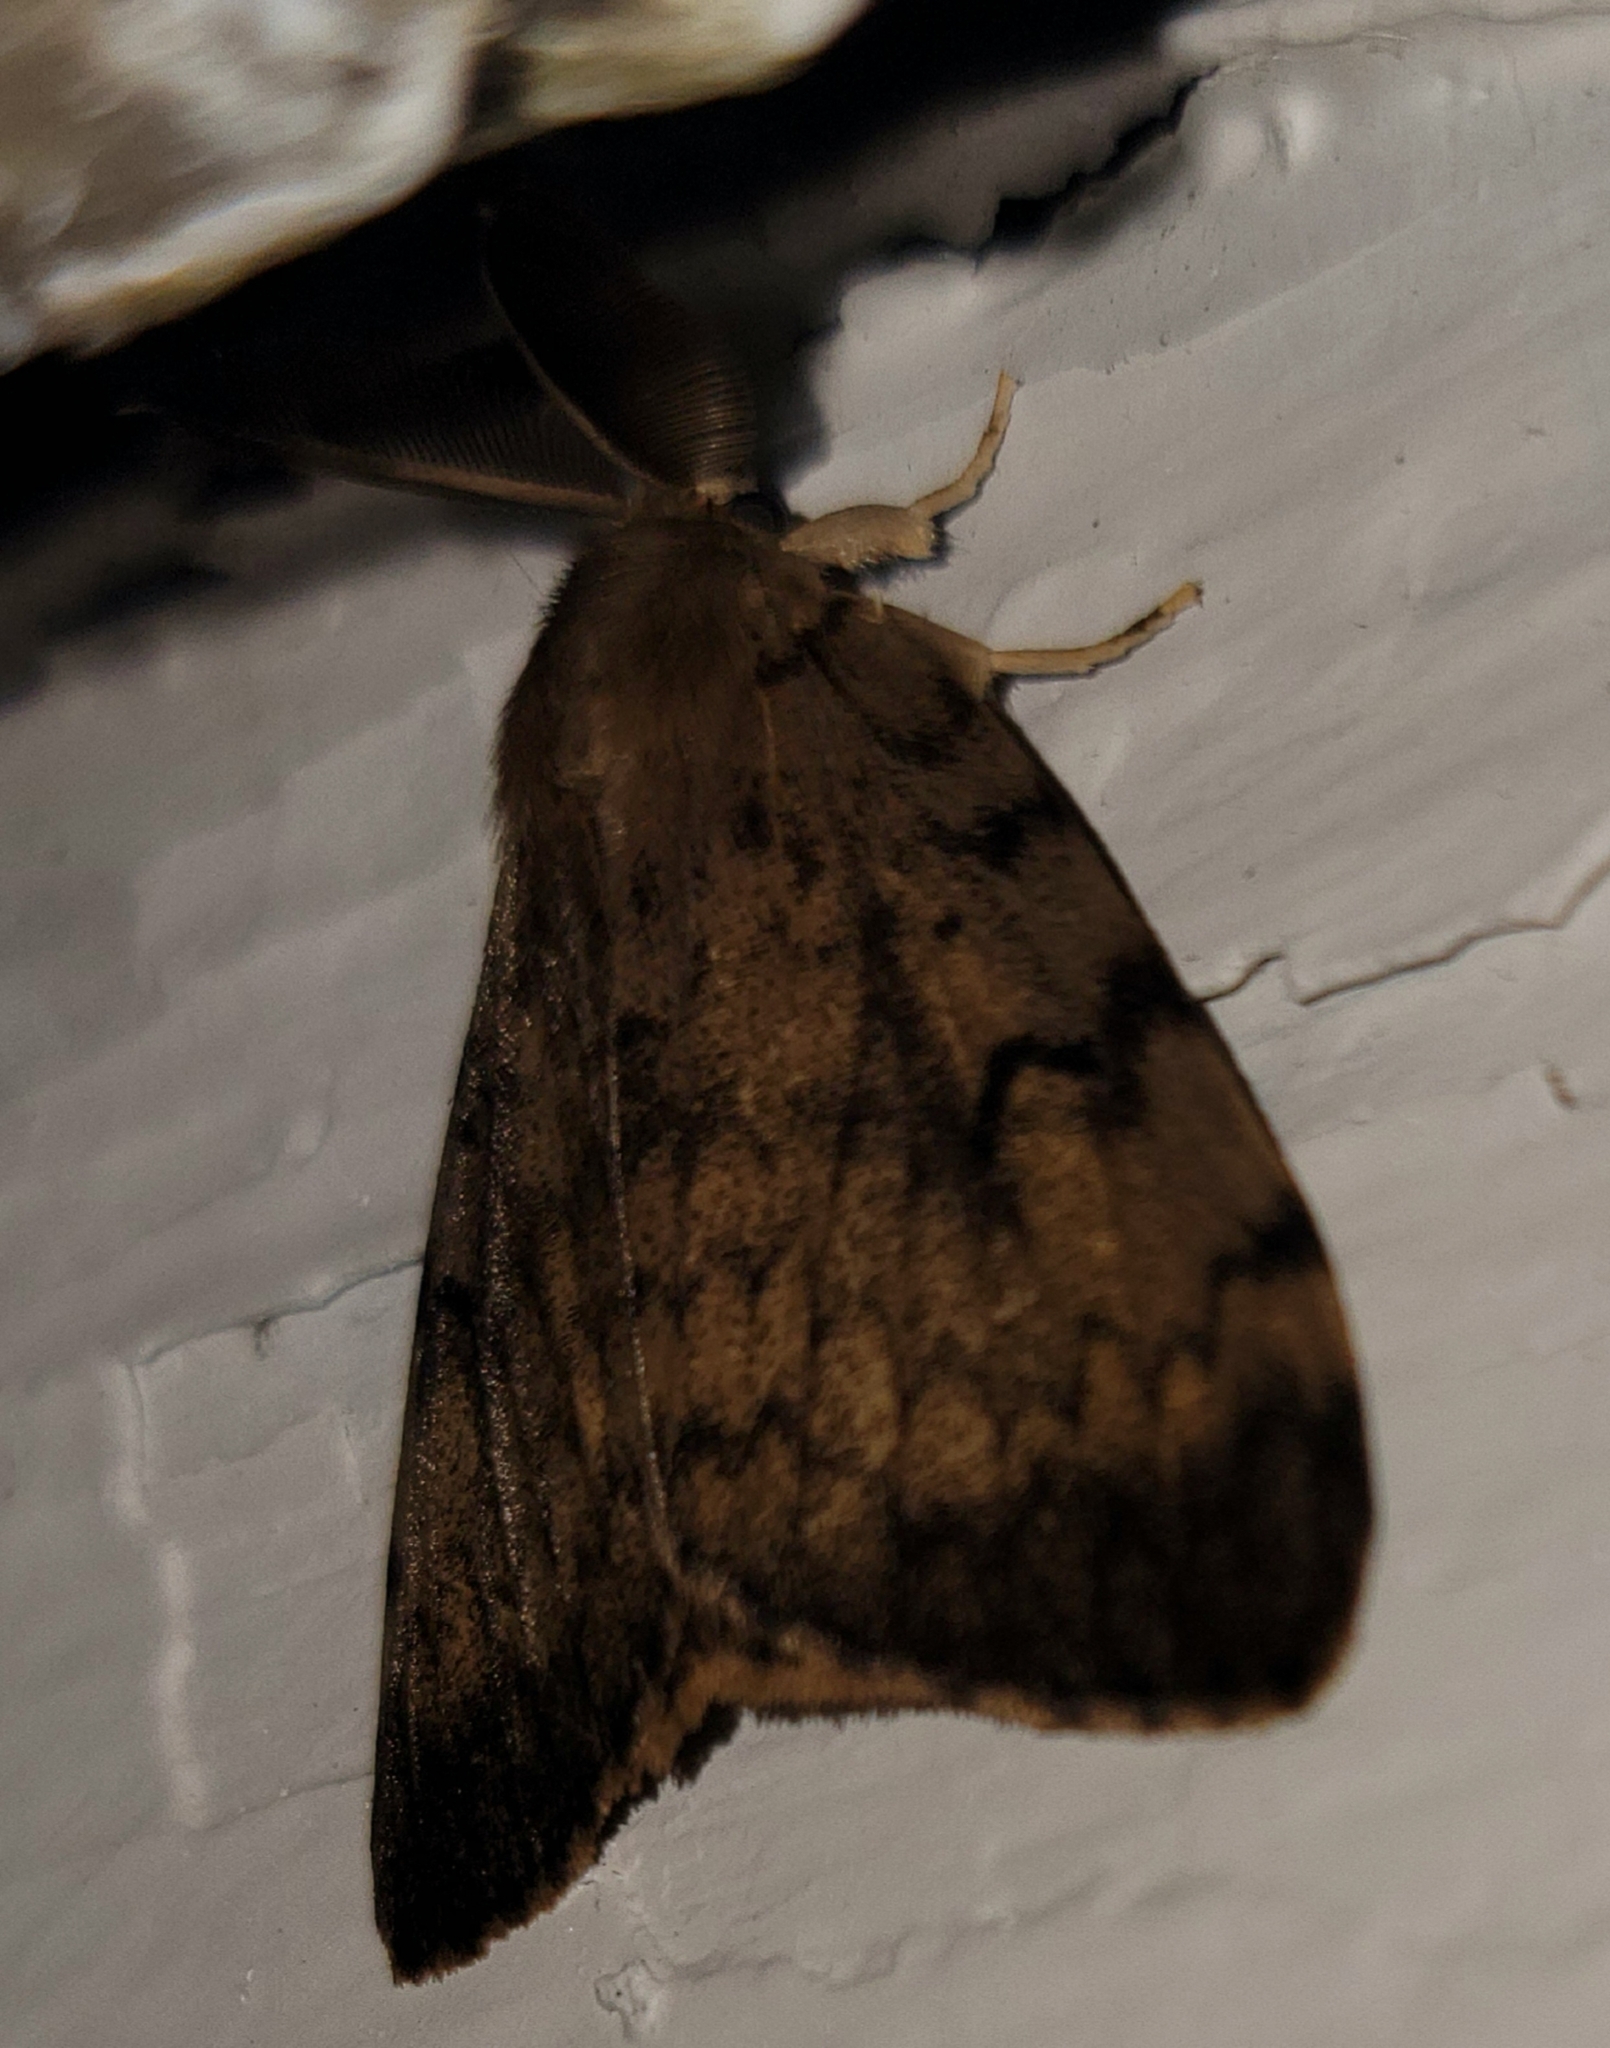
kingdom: Animalia
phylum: Arthropoda
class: Insecta
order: Lepidoptera
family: Erebidae
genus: Lymantria
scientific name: Lymantria dispar
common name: Gypsy moth
